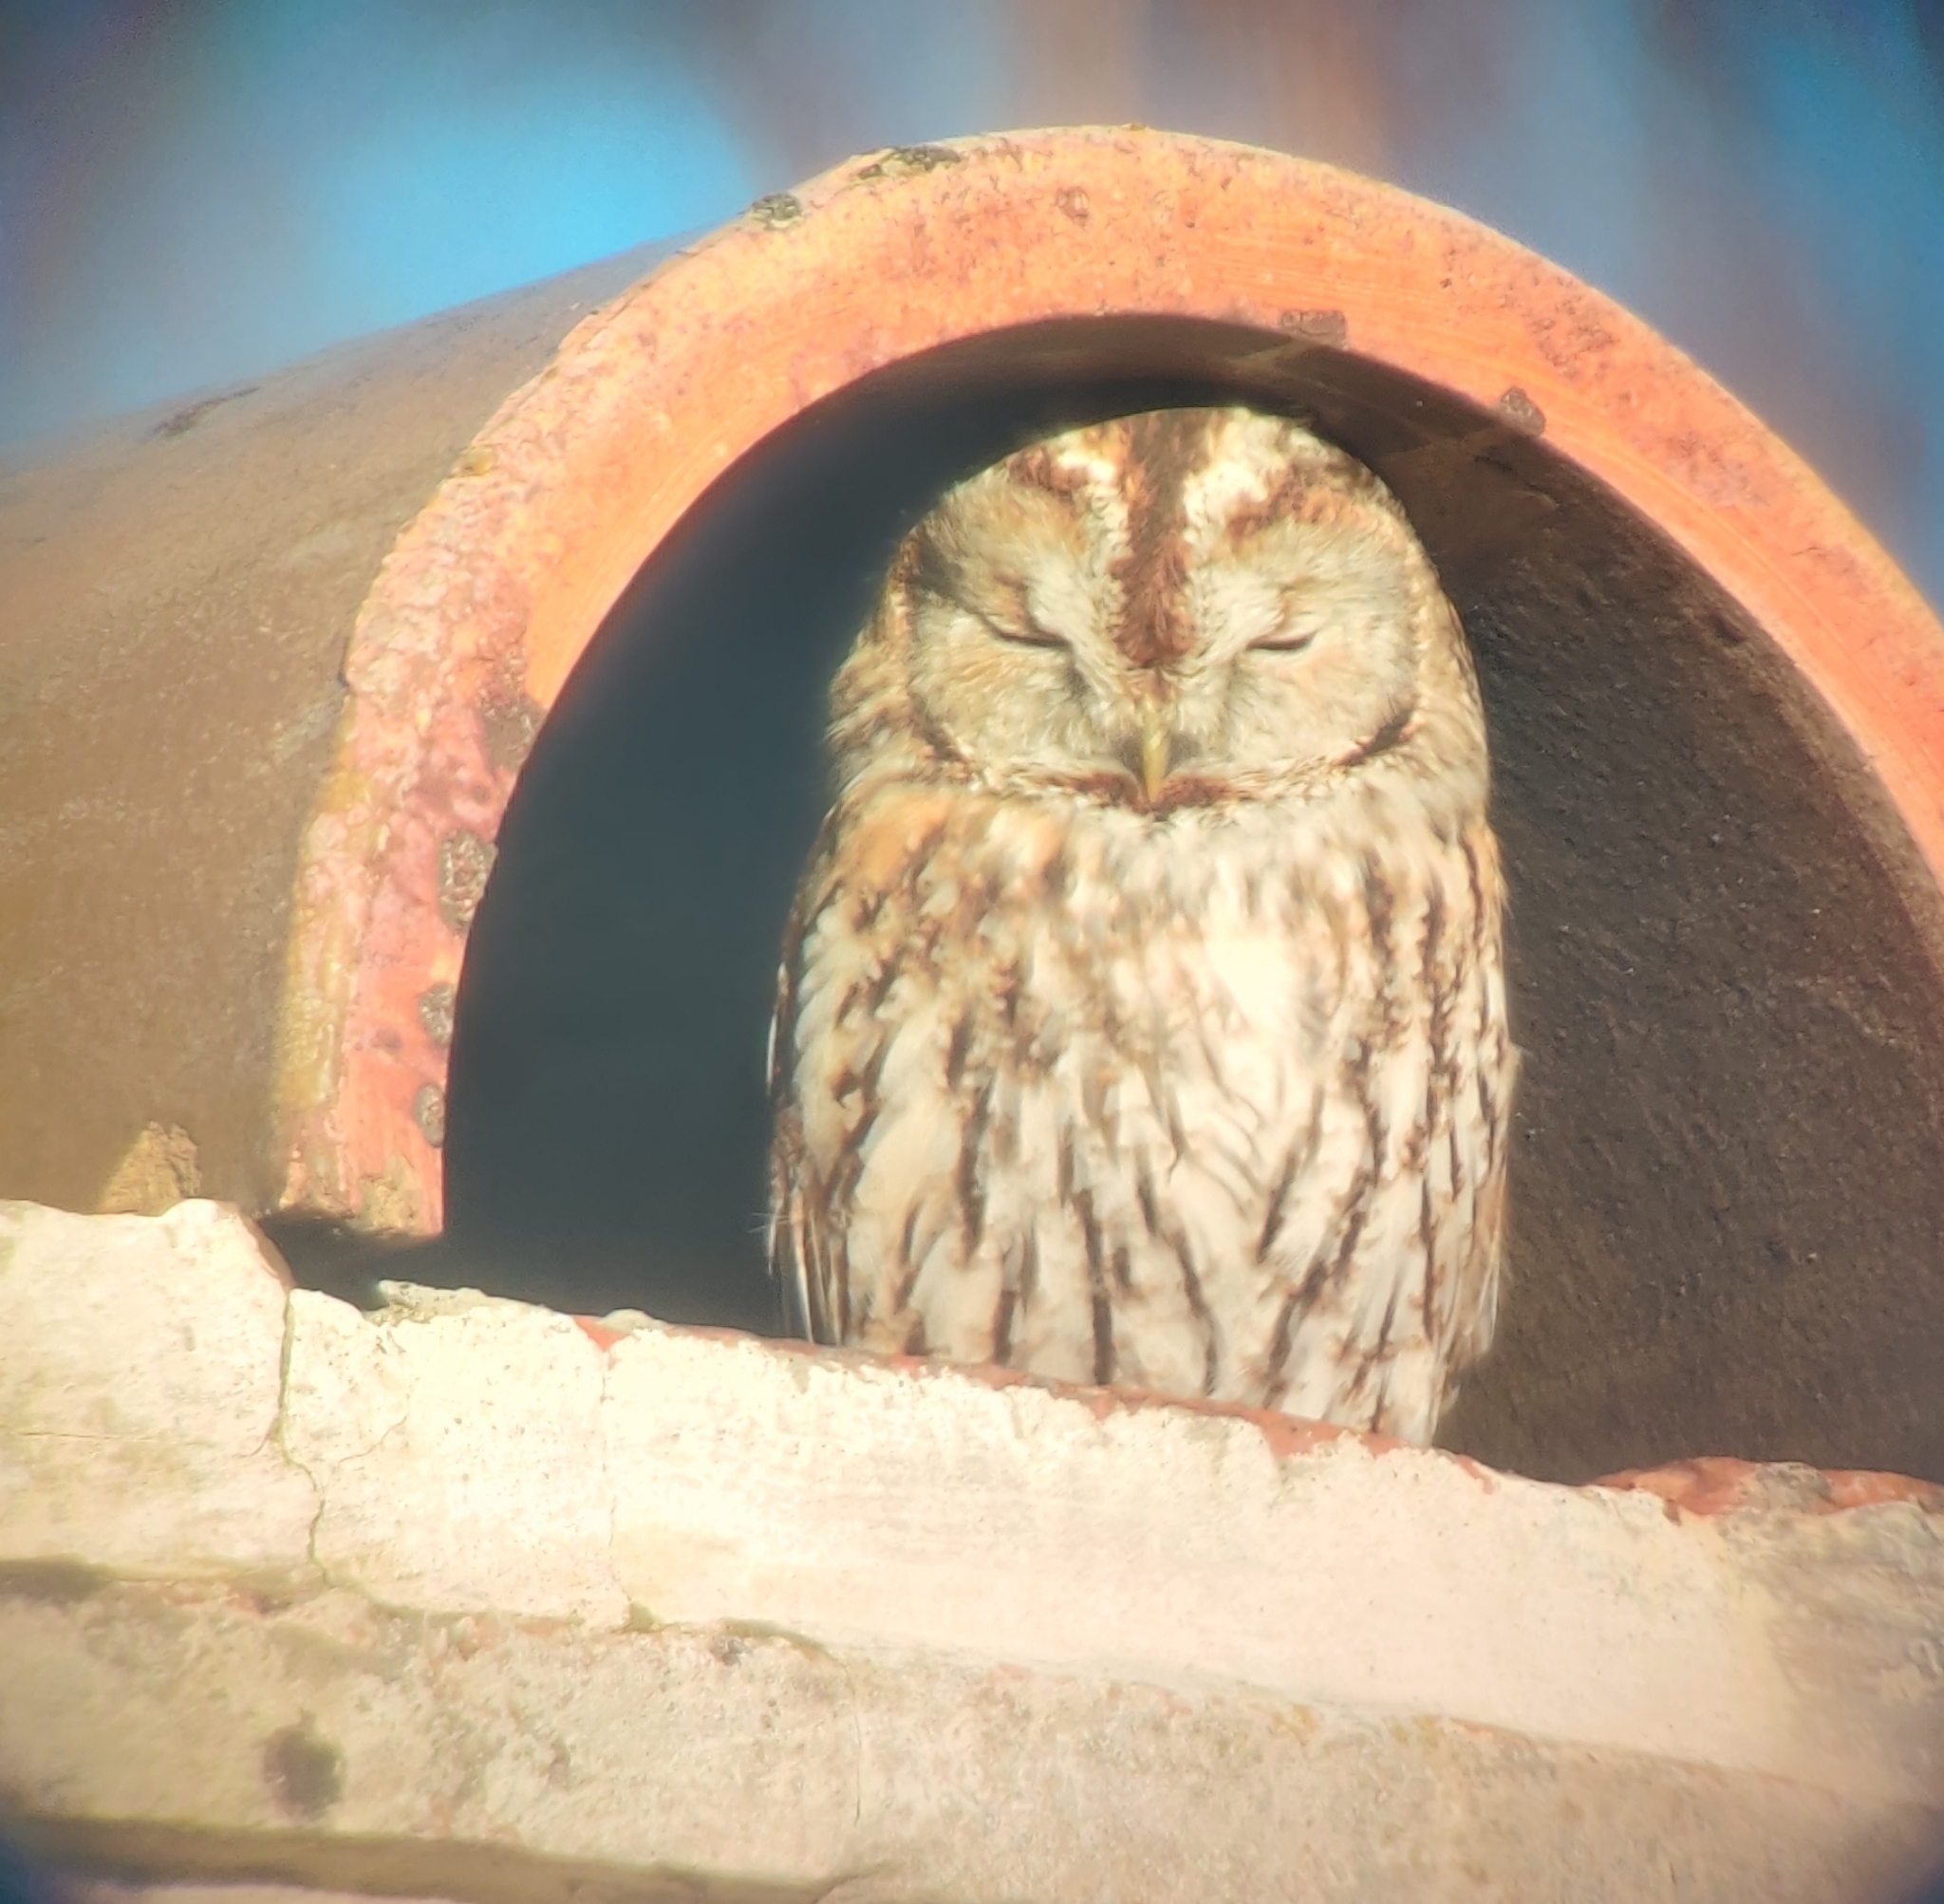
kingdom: Animalia
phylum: Chordata
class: Aves
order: Strigiformes
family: Strigidae
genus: Strix
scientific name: Strix aluco
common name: Tawny owl
